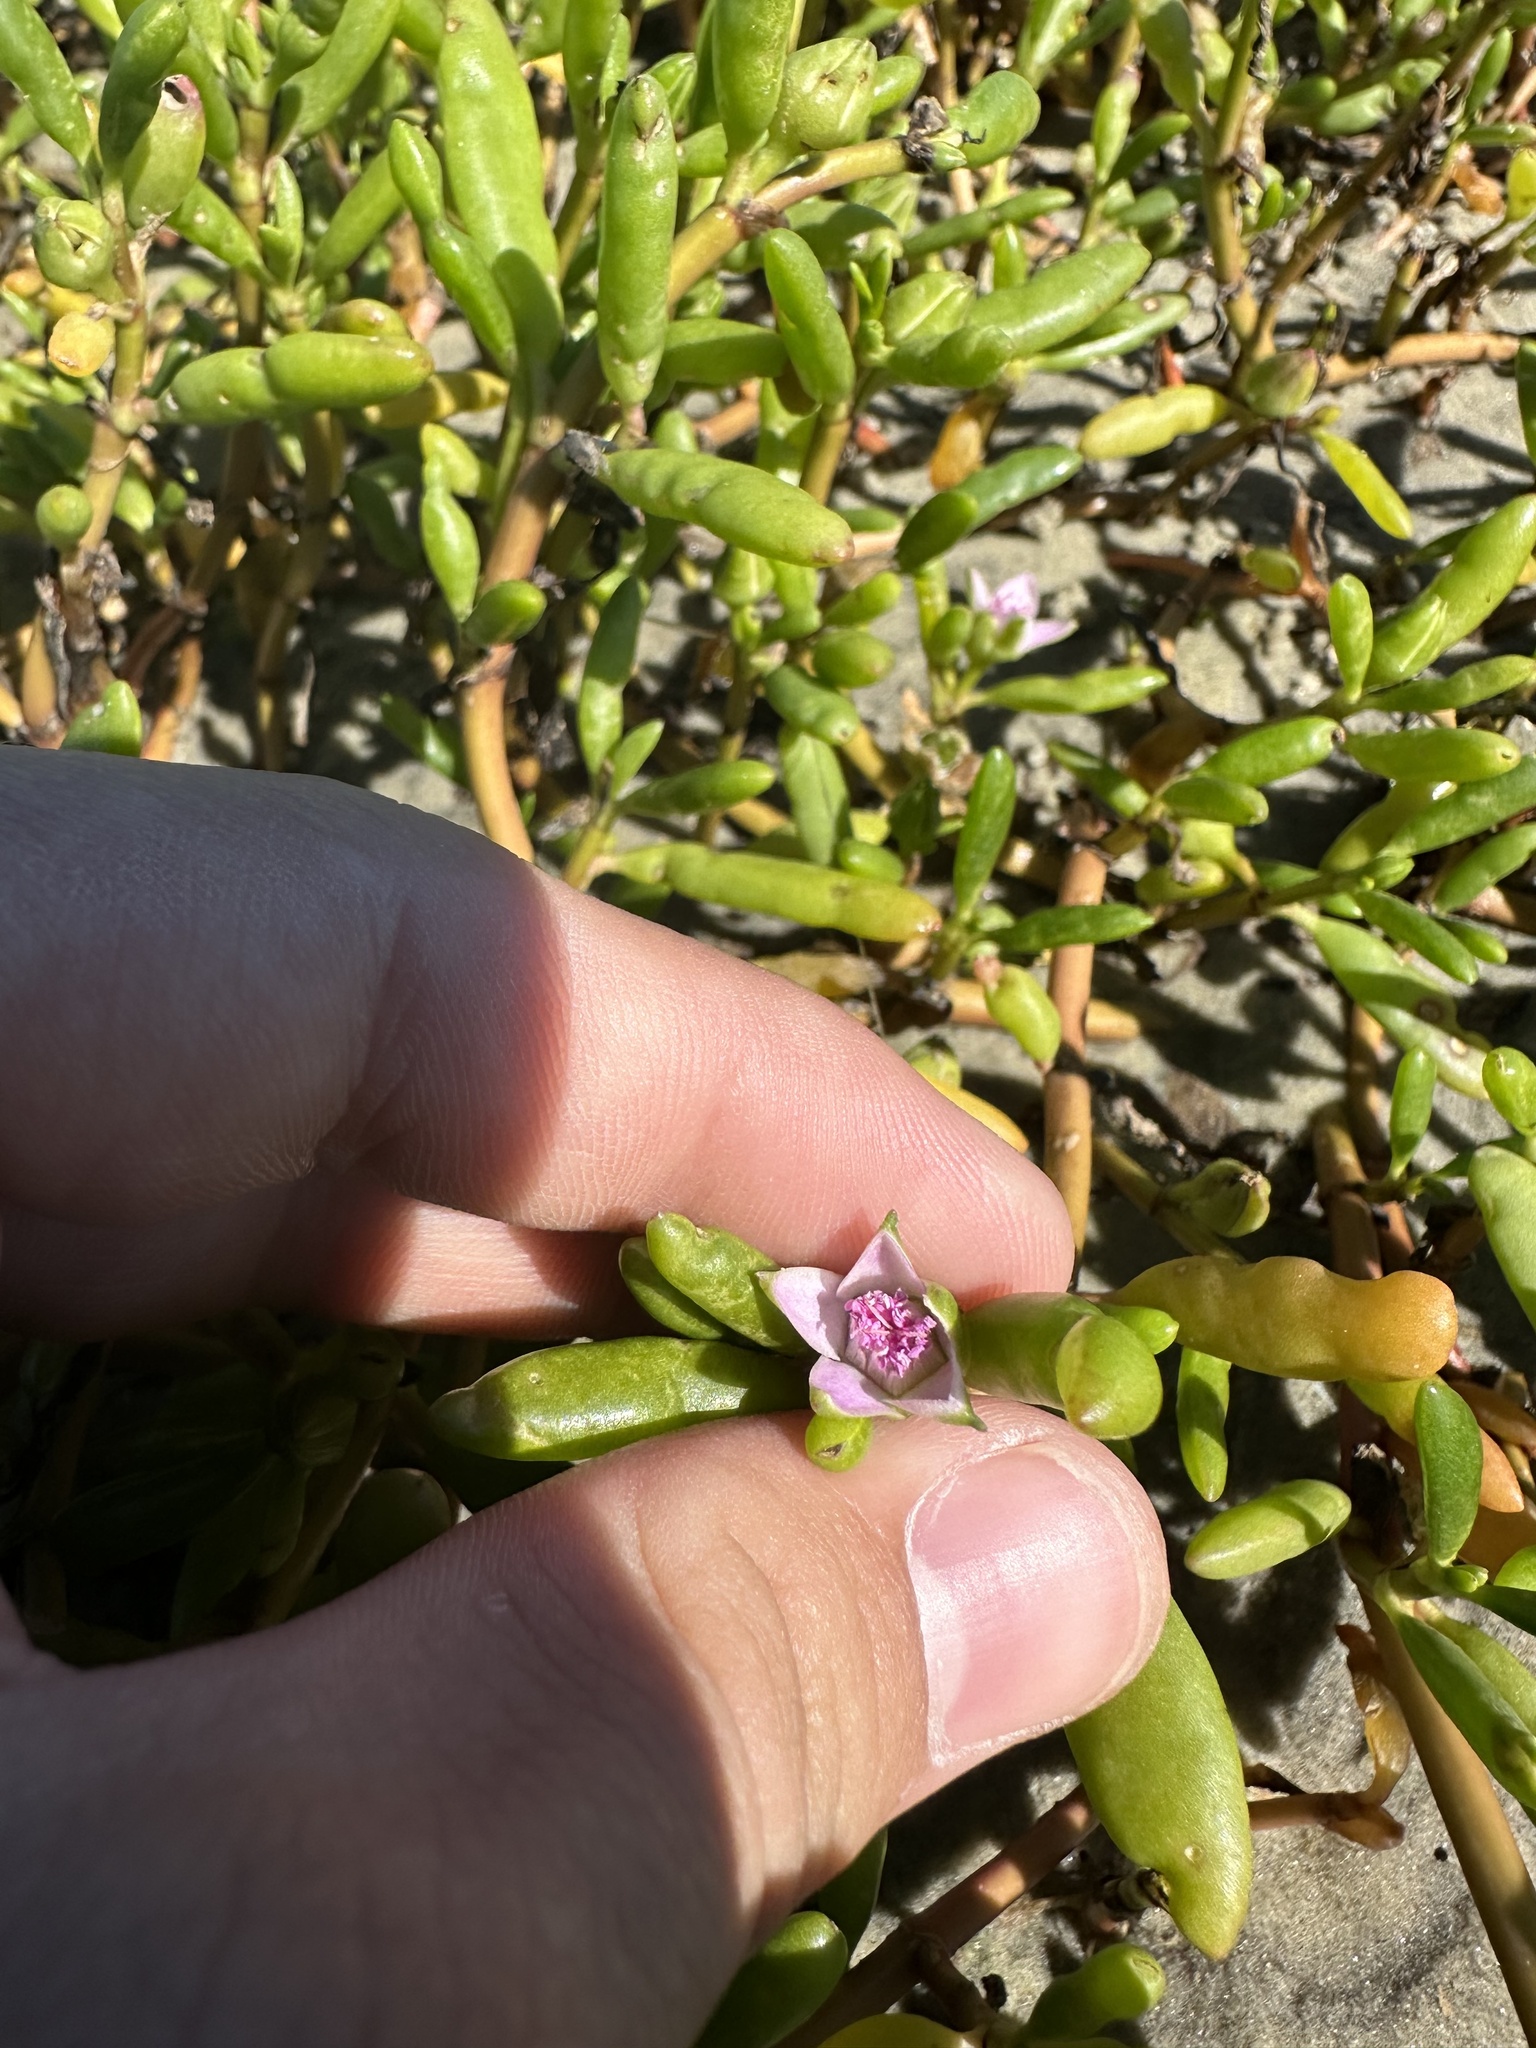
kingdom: Plantae
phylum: Tracheophyta
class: Magnoliopsida
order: Caryophyllales
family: Aizoaceae
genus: Sesuvium
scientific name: Sesuvium portulacastrum
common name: Sea-purslane
